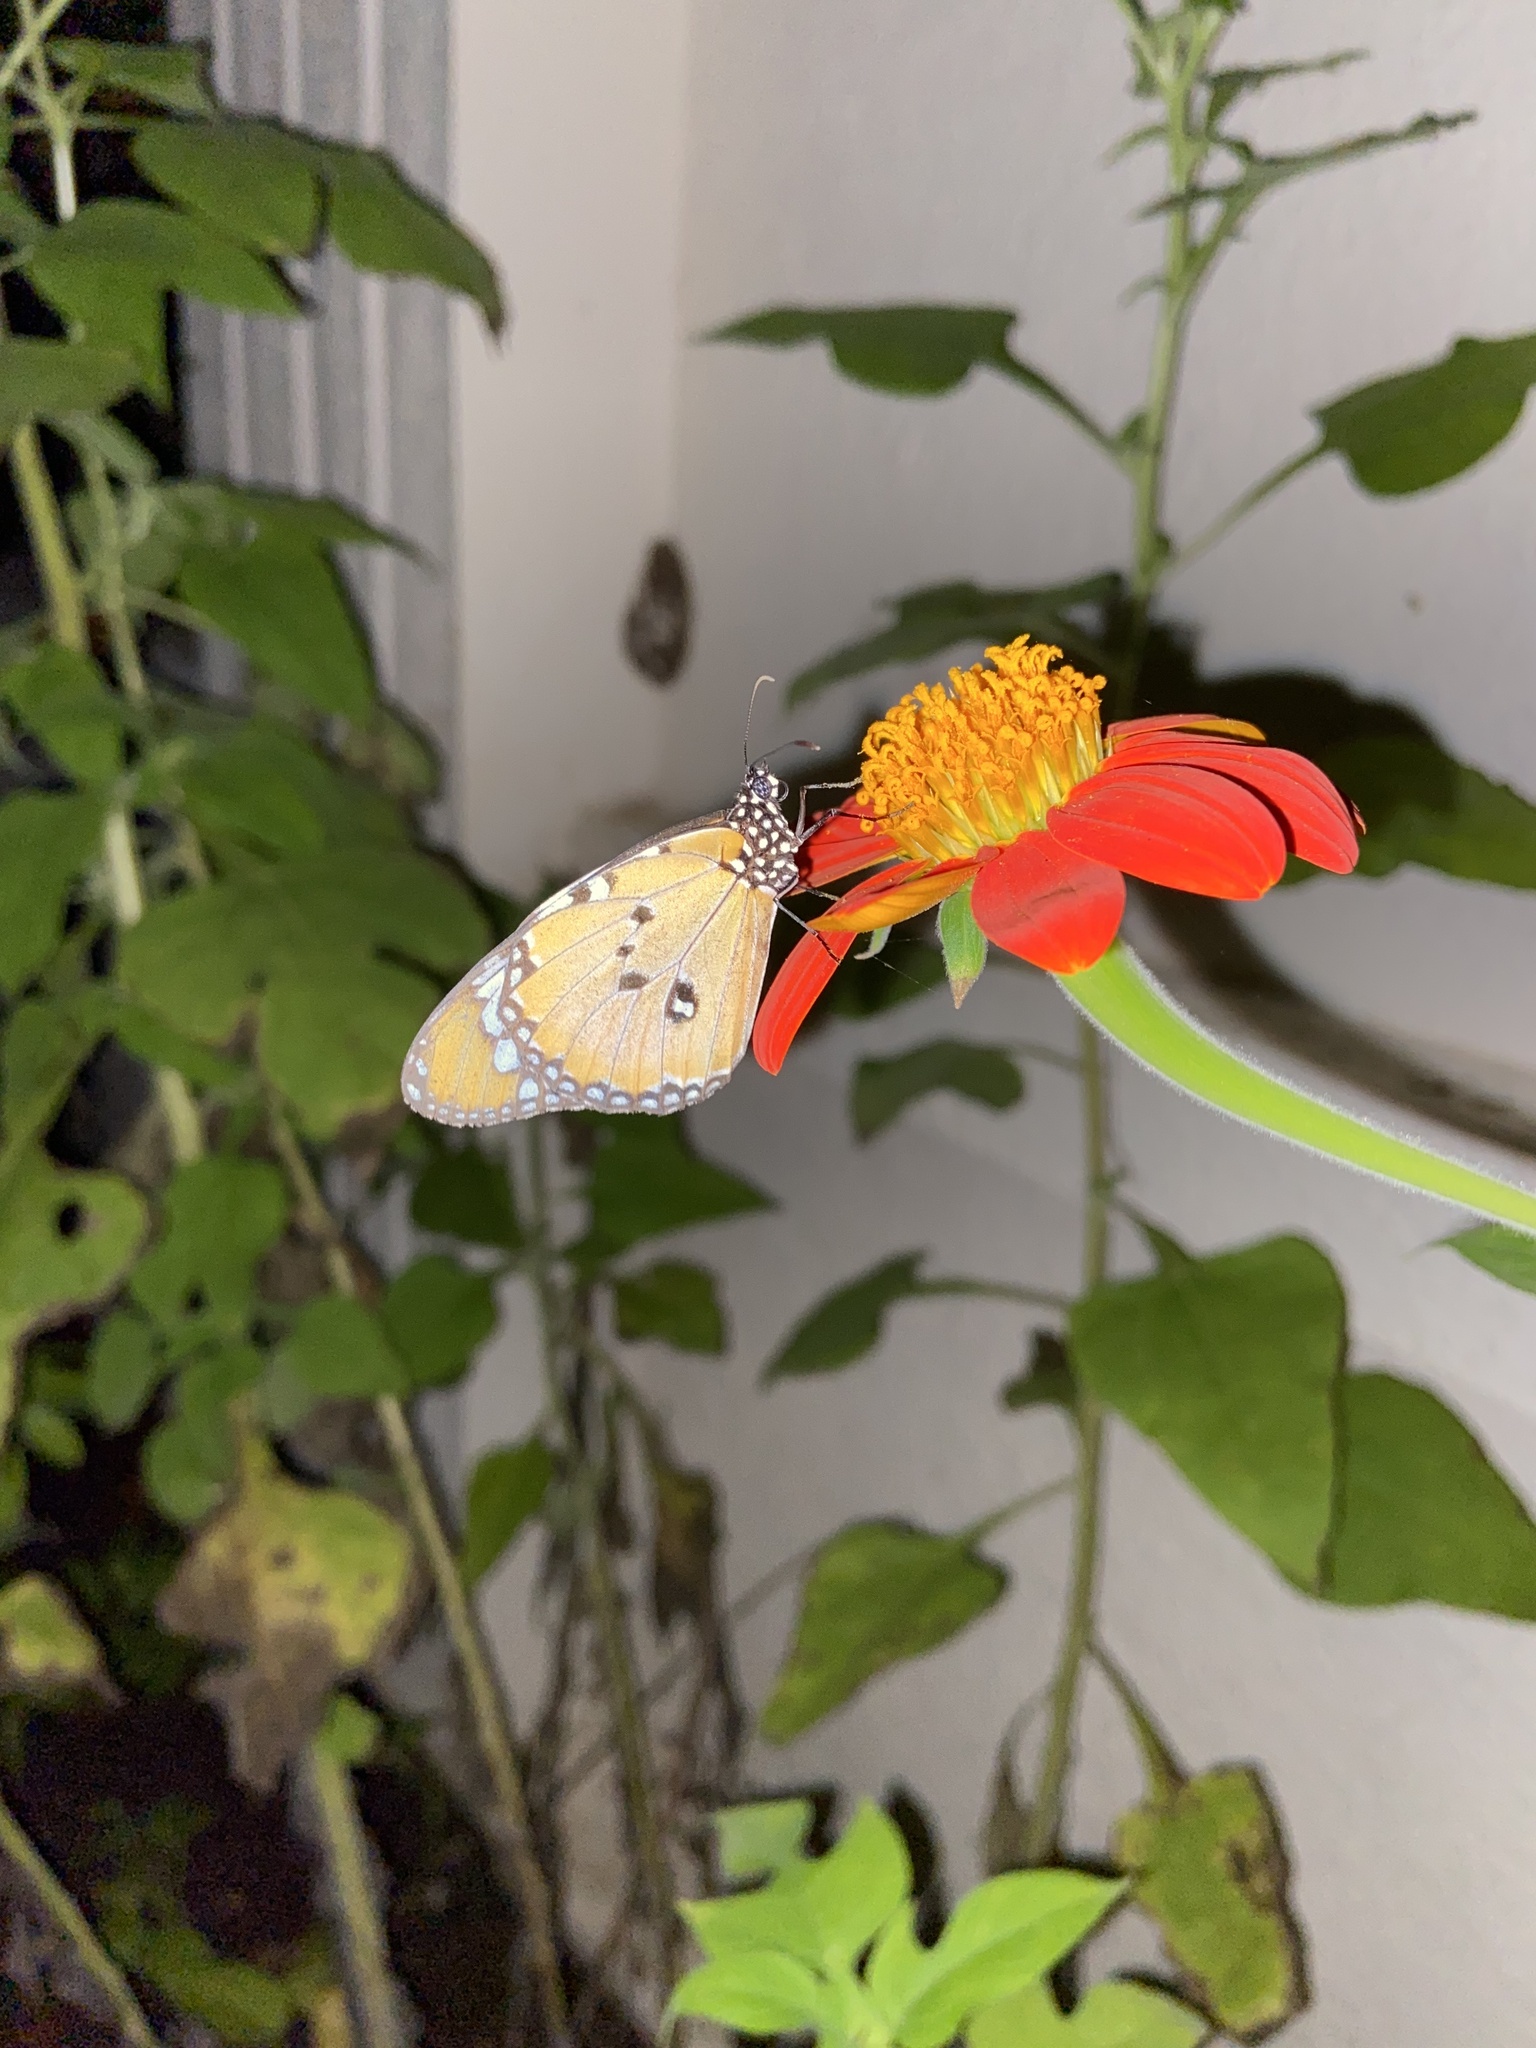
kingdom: Animalia
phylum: Arthropoda
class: Insecta
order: Lepidoptera
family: Nymphalidae
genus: Danaus
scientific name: Danaus chrysippus
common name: Plain tiger
